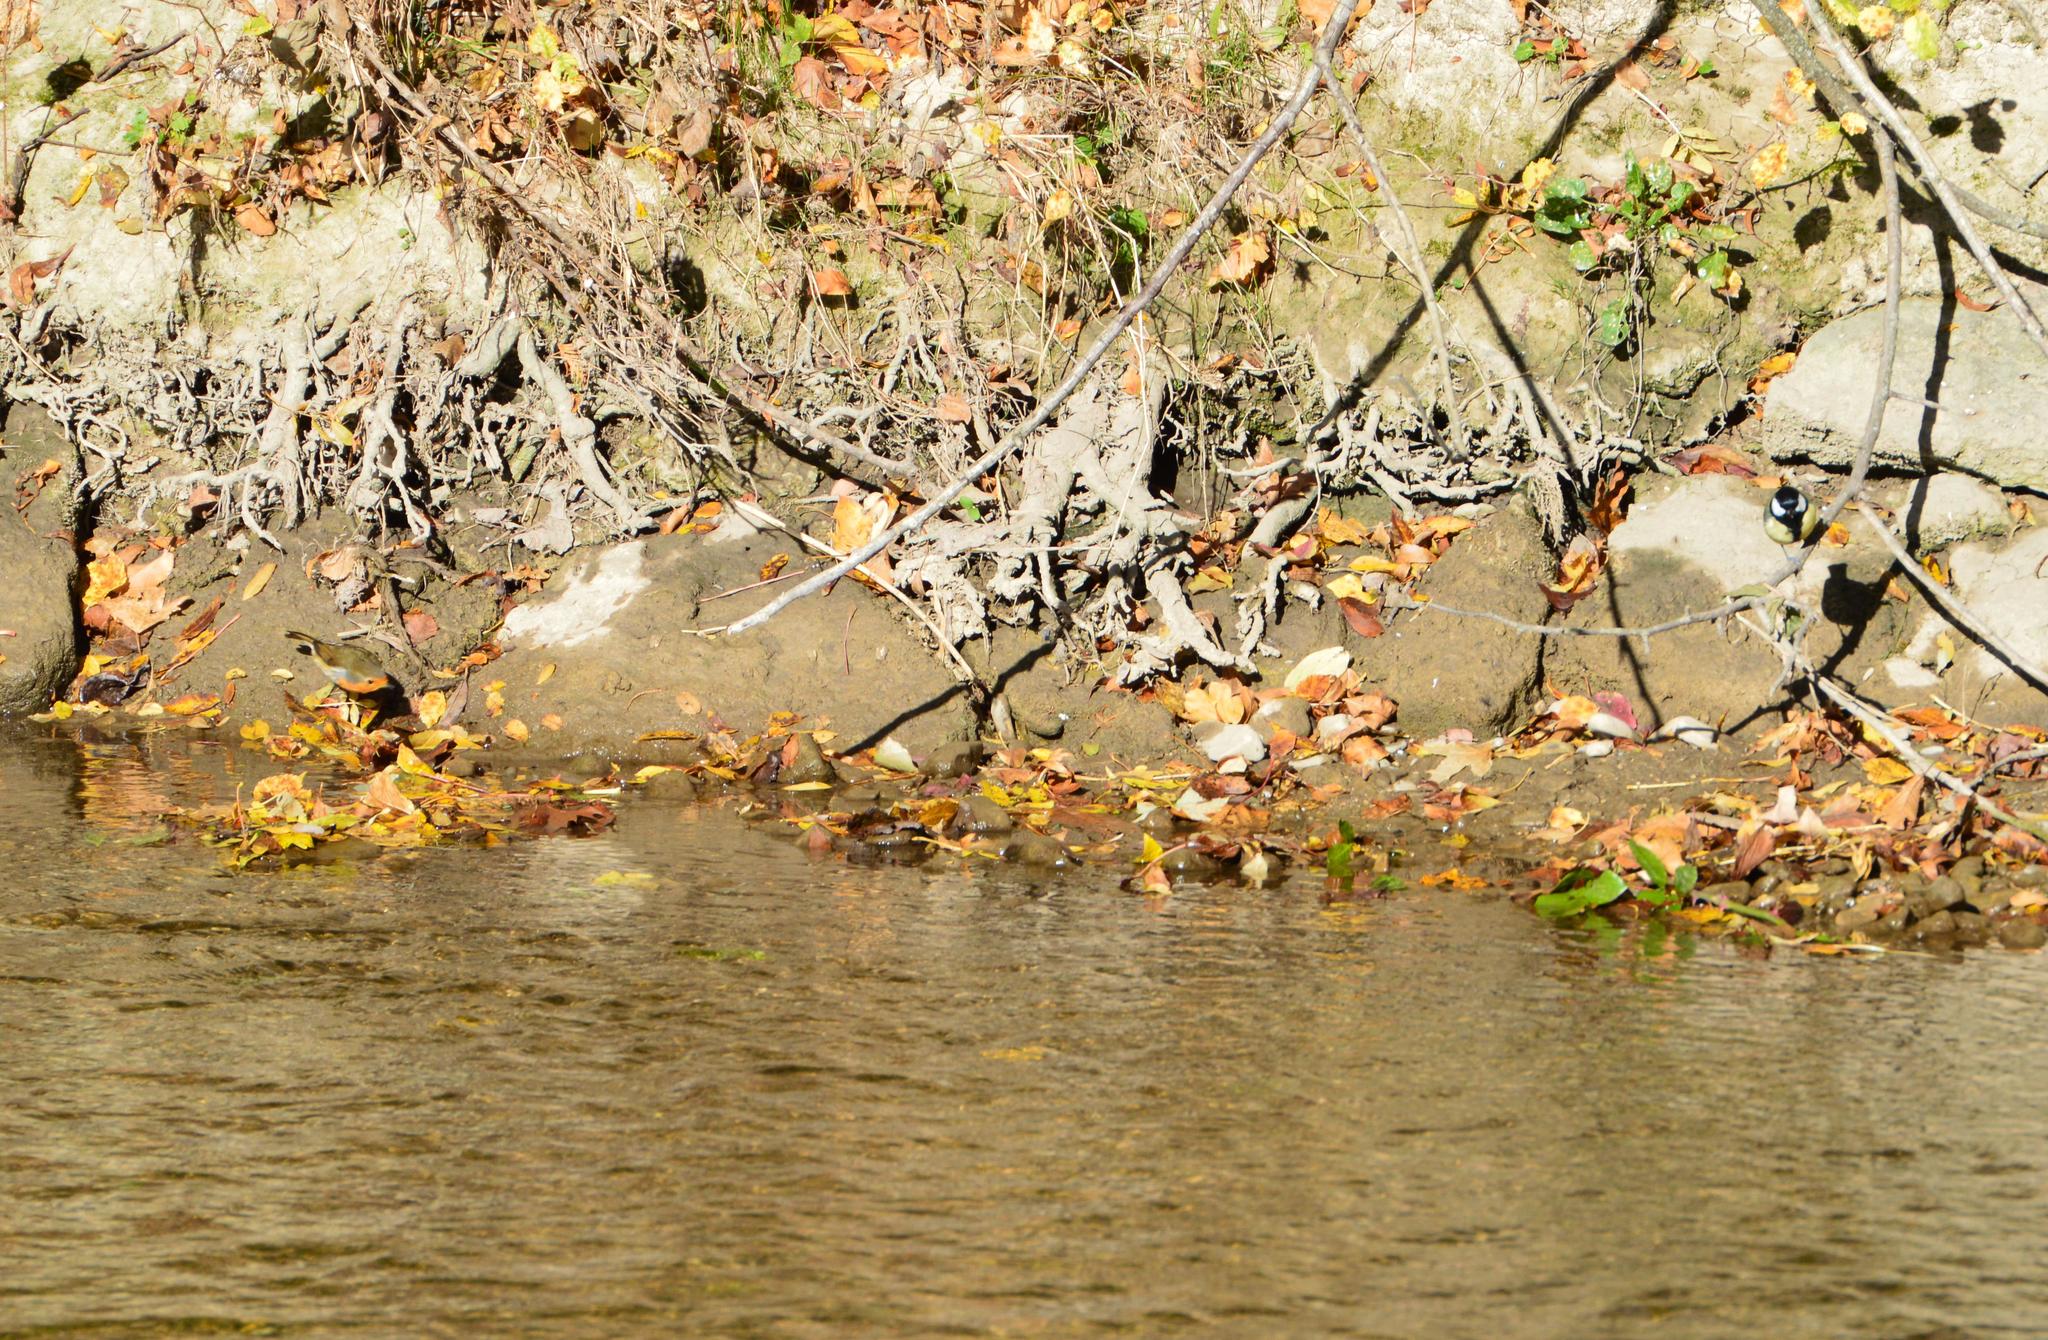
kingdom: Animalia
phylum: Chordata
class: Aves
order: Passeriformes
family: Muscicapidae
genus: Erithacus
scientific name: Erithacus rubecula
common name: European robin
